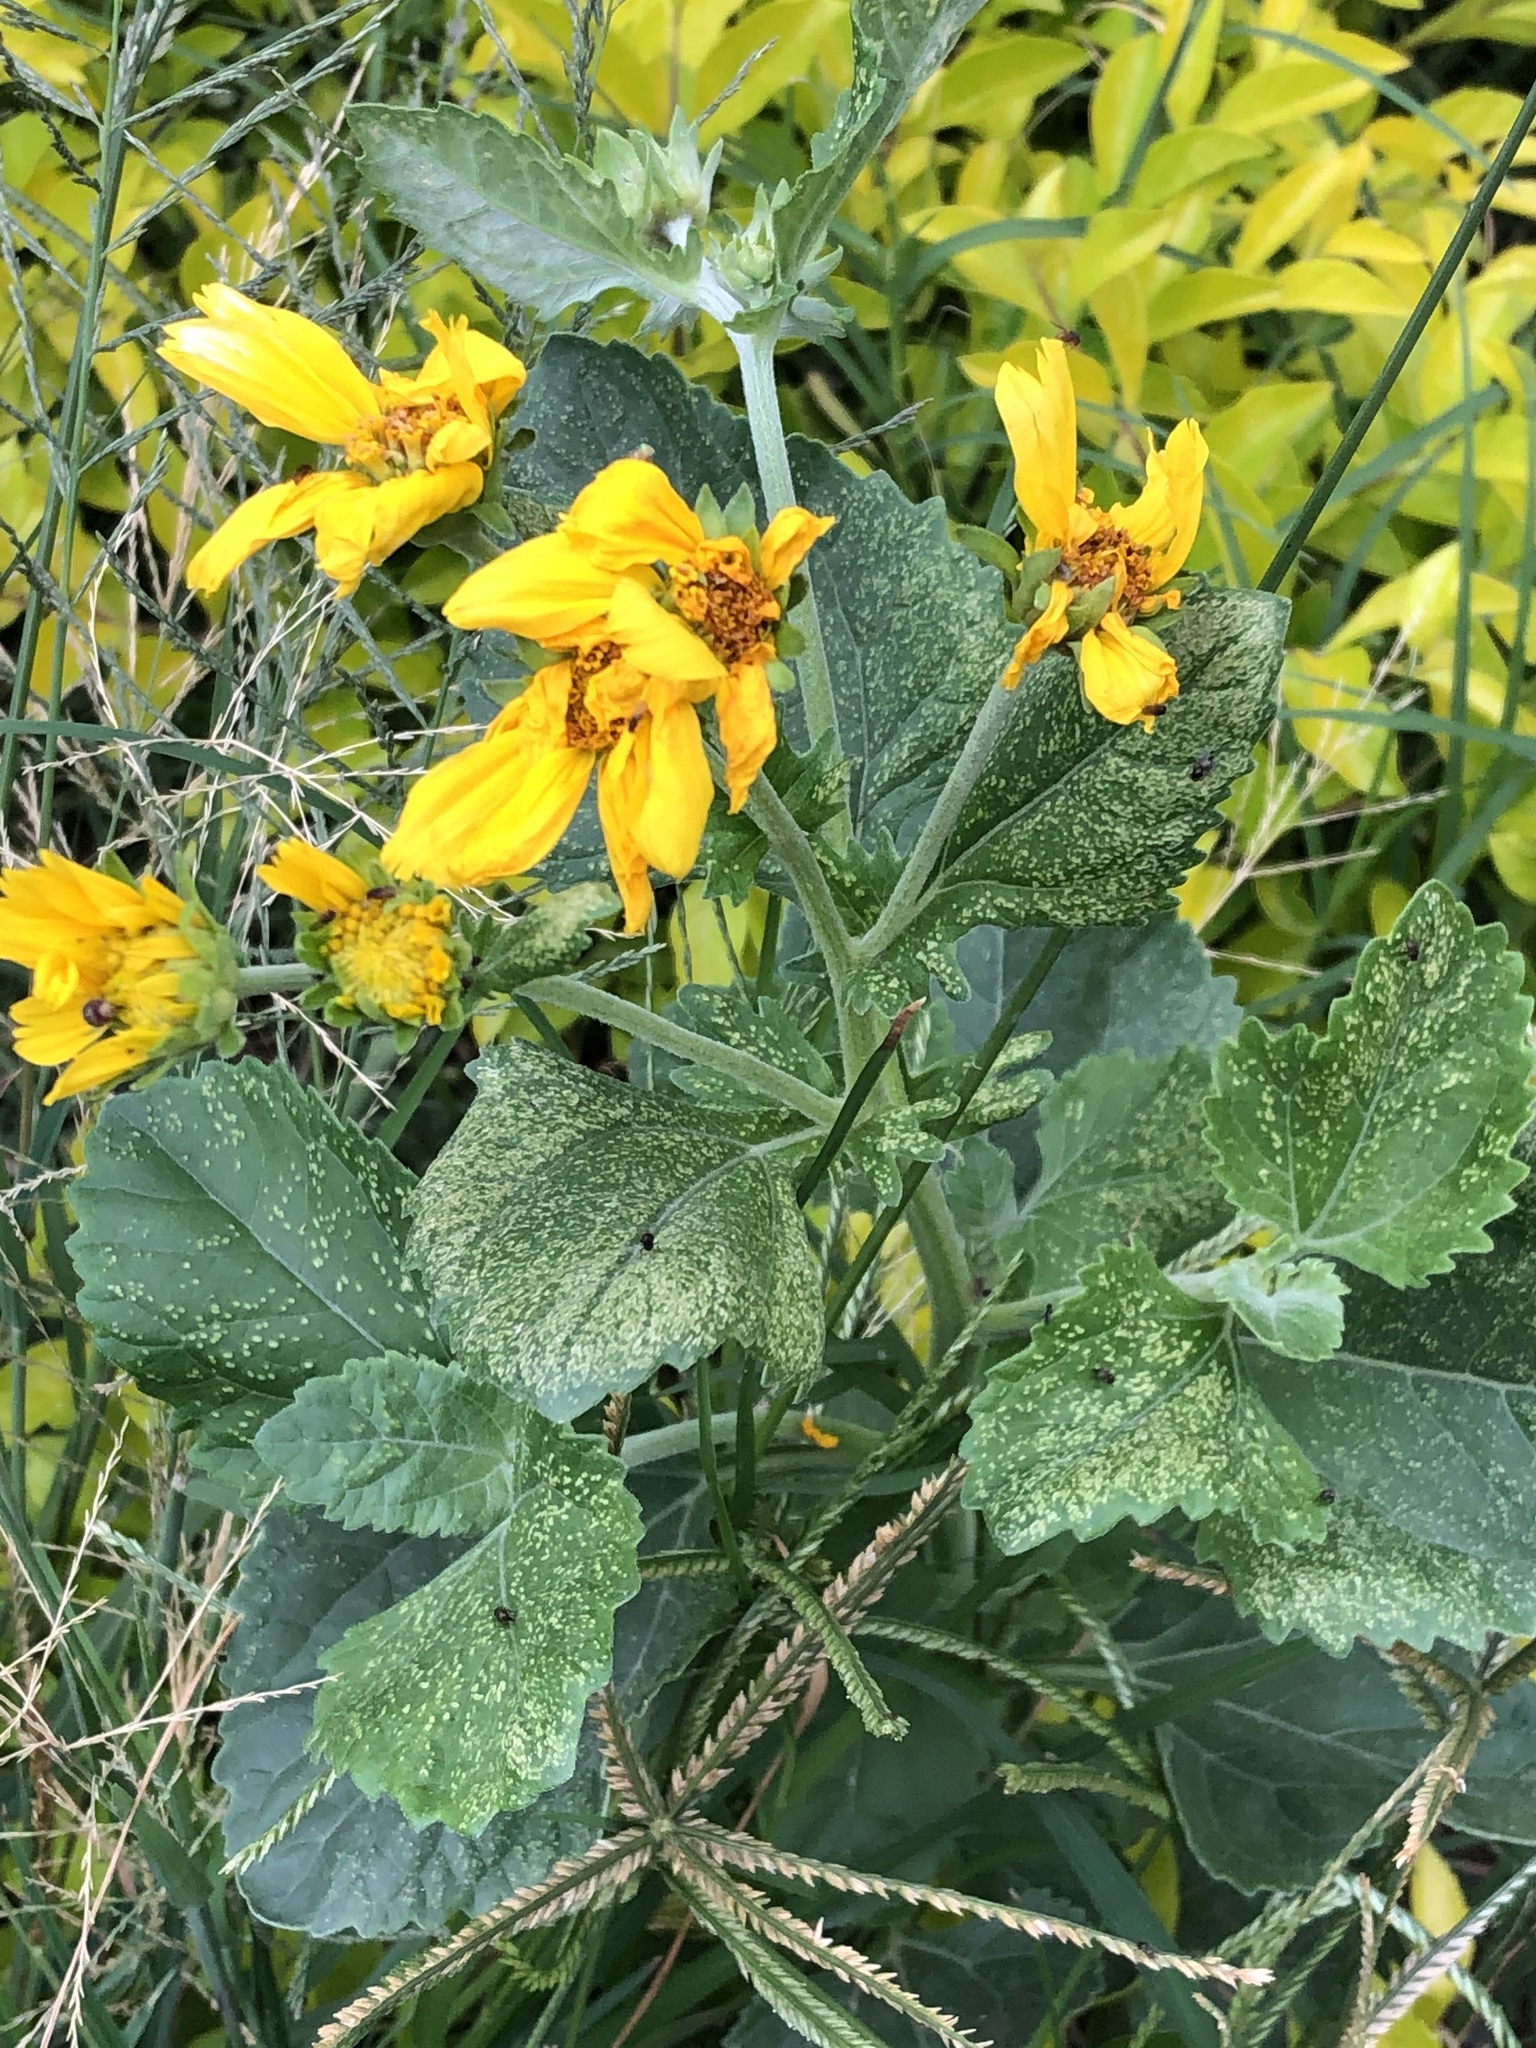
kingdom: Plantae
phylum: Tracheophyta
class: Magnoliopsida
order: Asterales
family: Asteraceae
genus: Verbesina
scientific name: Verbesina encelioides
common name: Golden crownbeard
